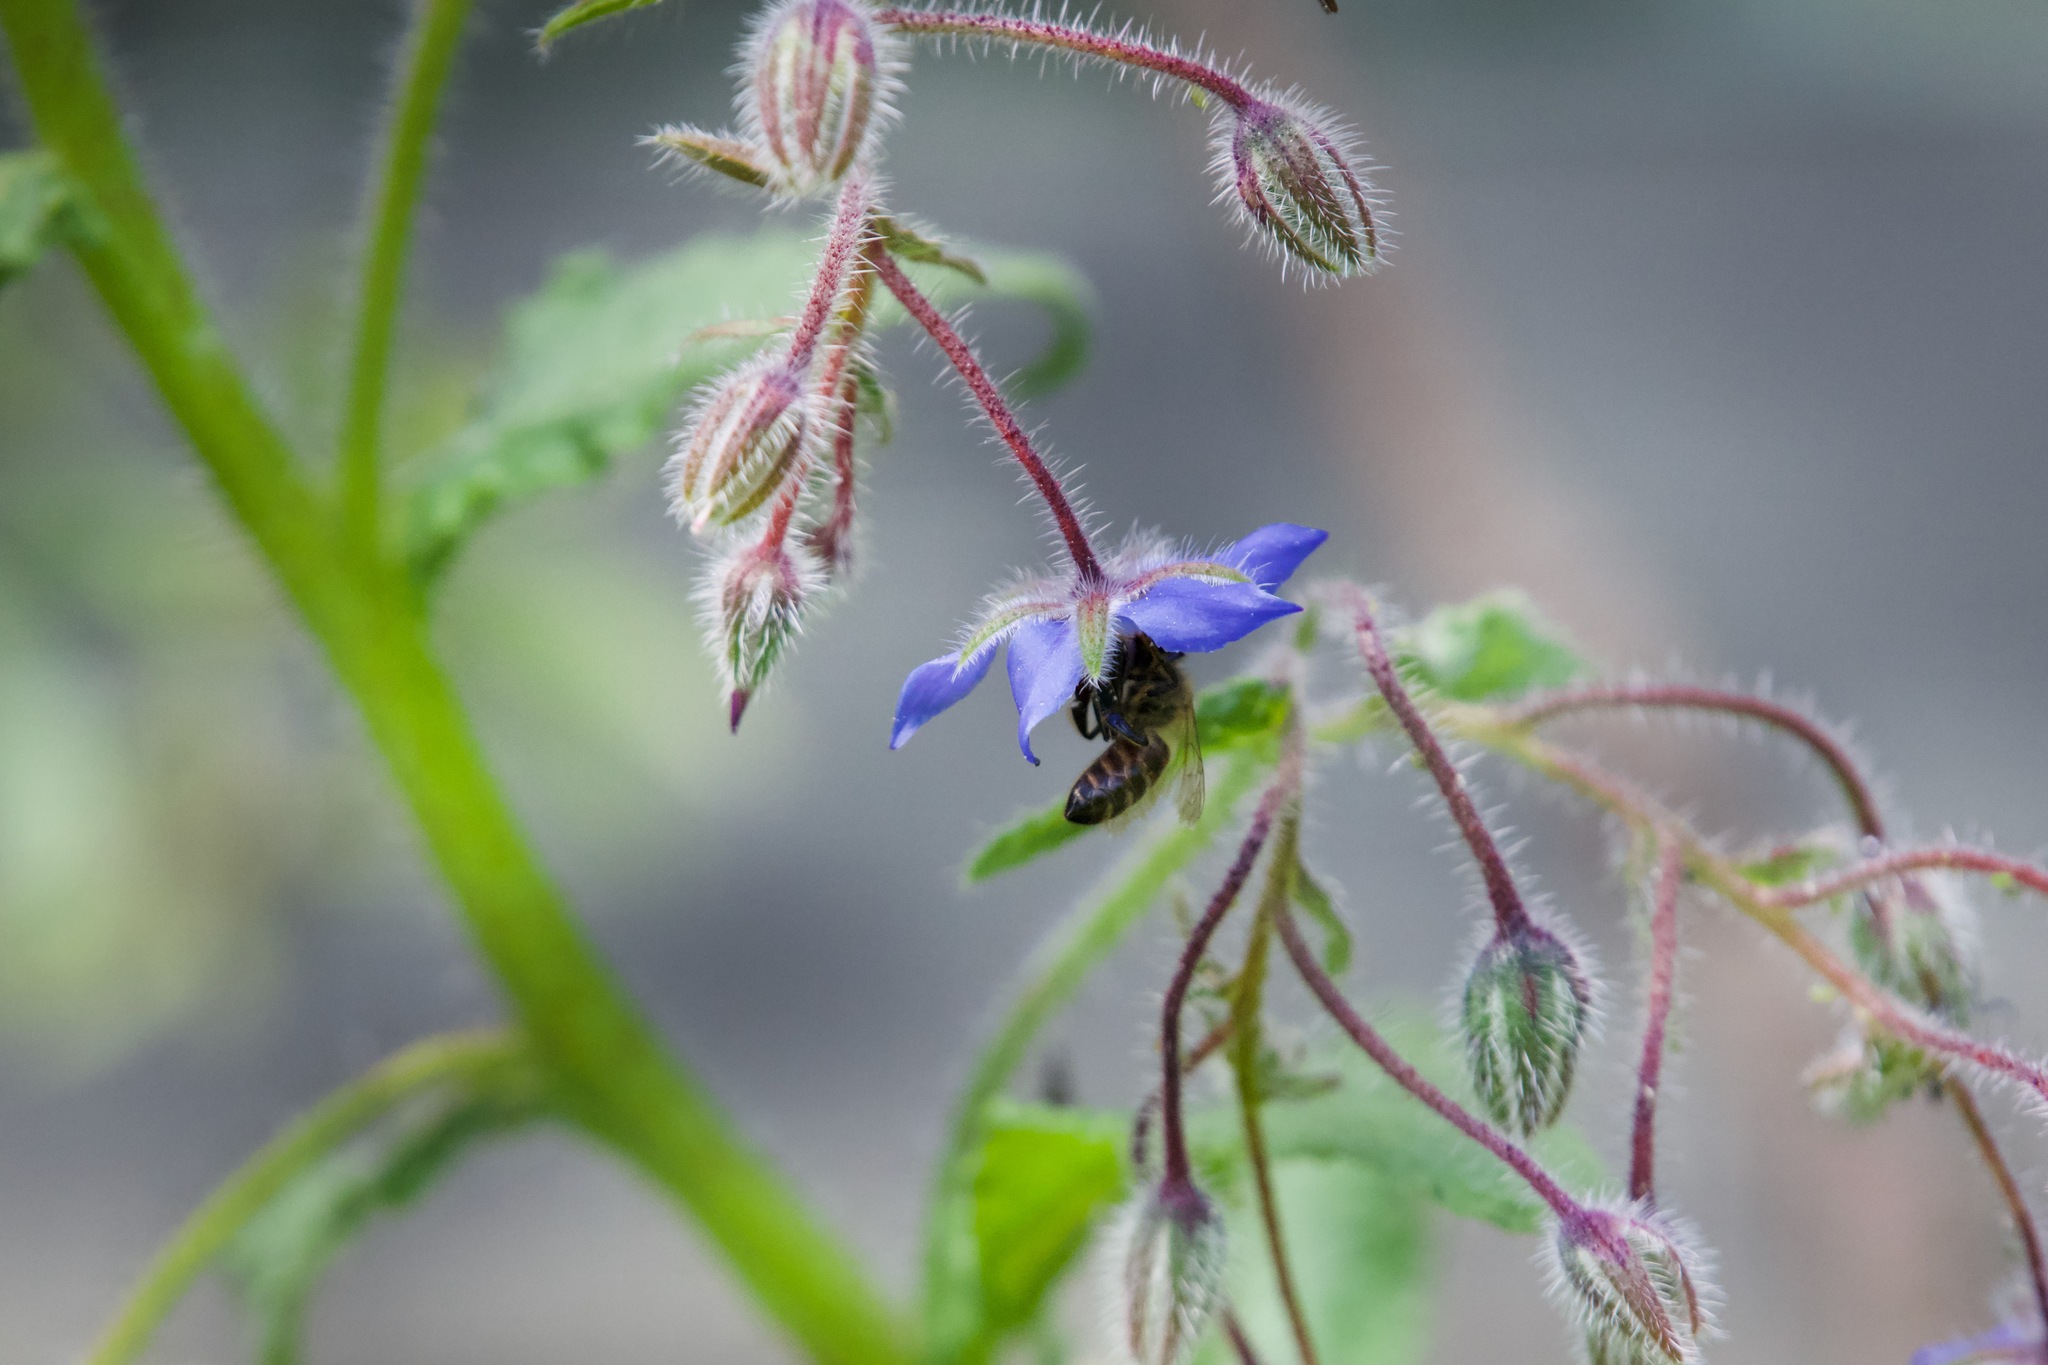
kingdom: Animalia
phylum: Arthropoda
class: Insecta
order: Hymenoptera
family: Apidae
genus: Apis
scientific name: Apis mellifera
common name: Honey bee
